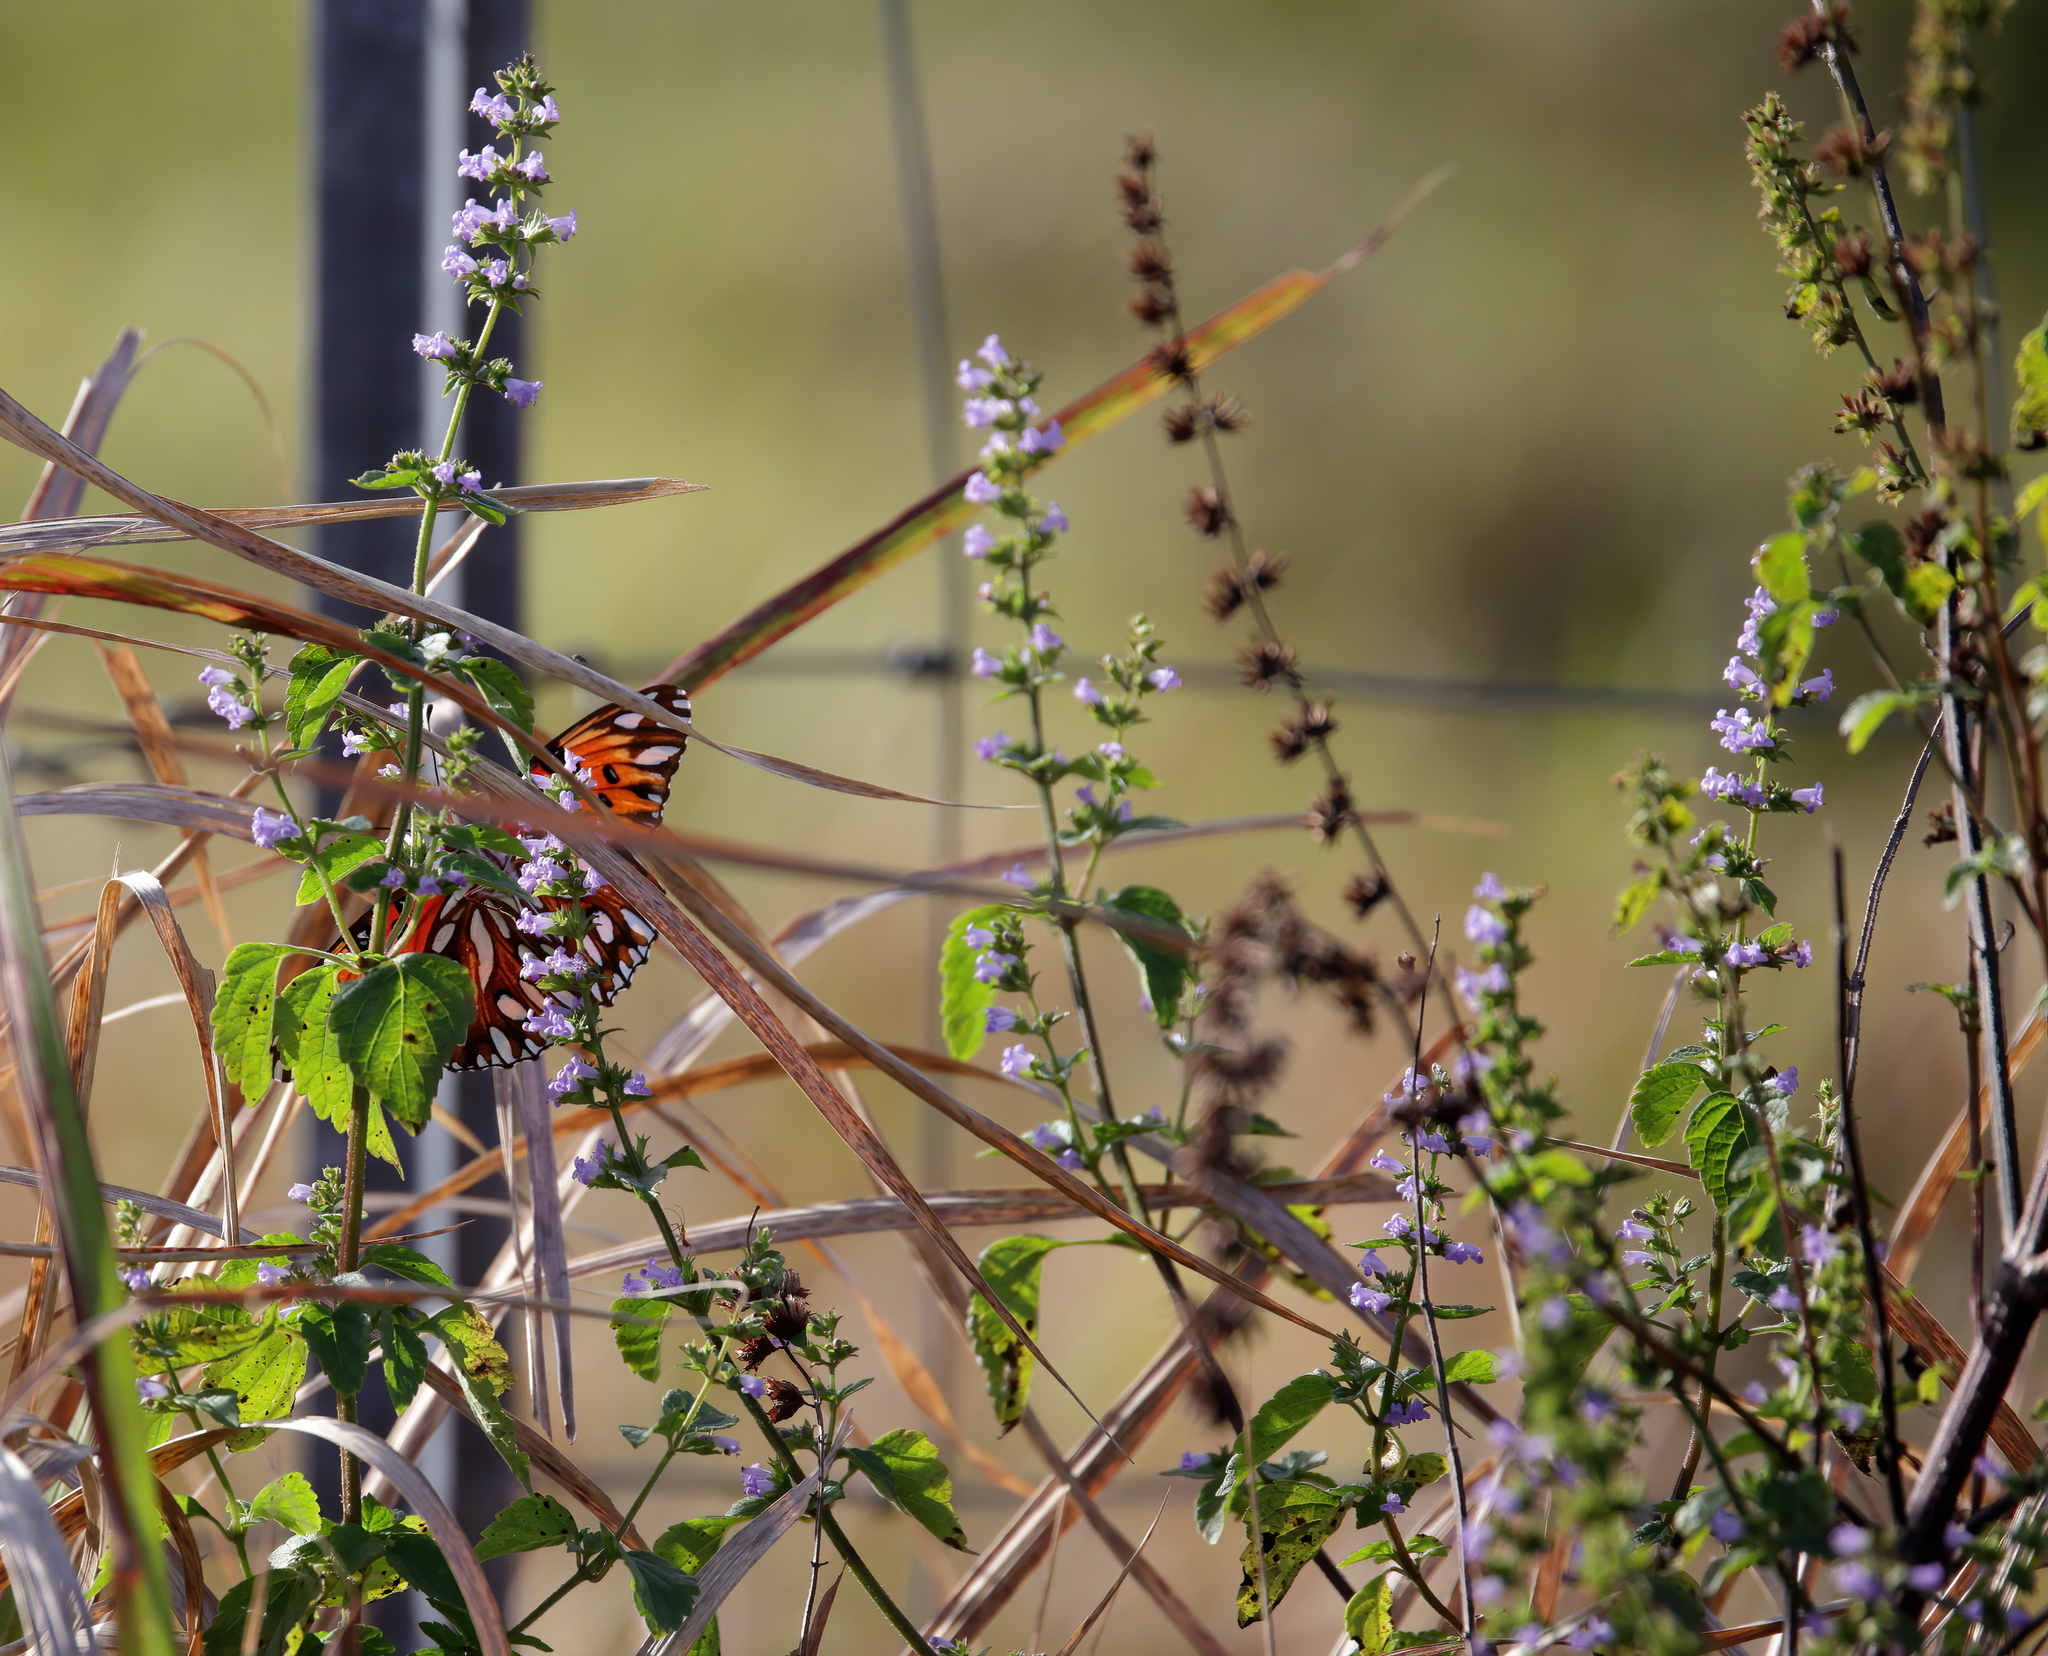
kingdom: Plantae
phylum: Tracheophyta
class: Magnoliopsida
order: Lamiales
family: Lamiaceae
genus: Cantinoa
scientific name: Cantinoa mutabilis
